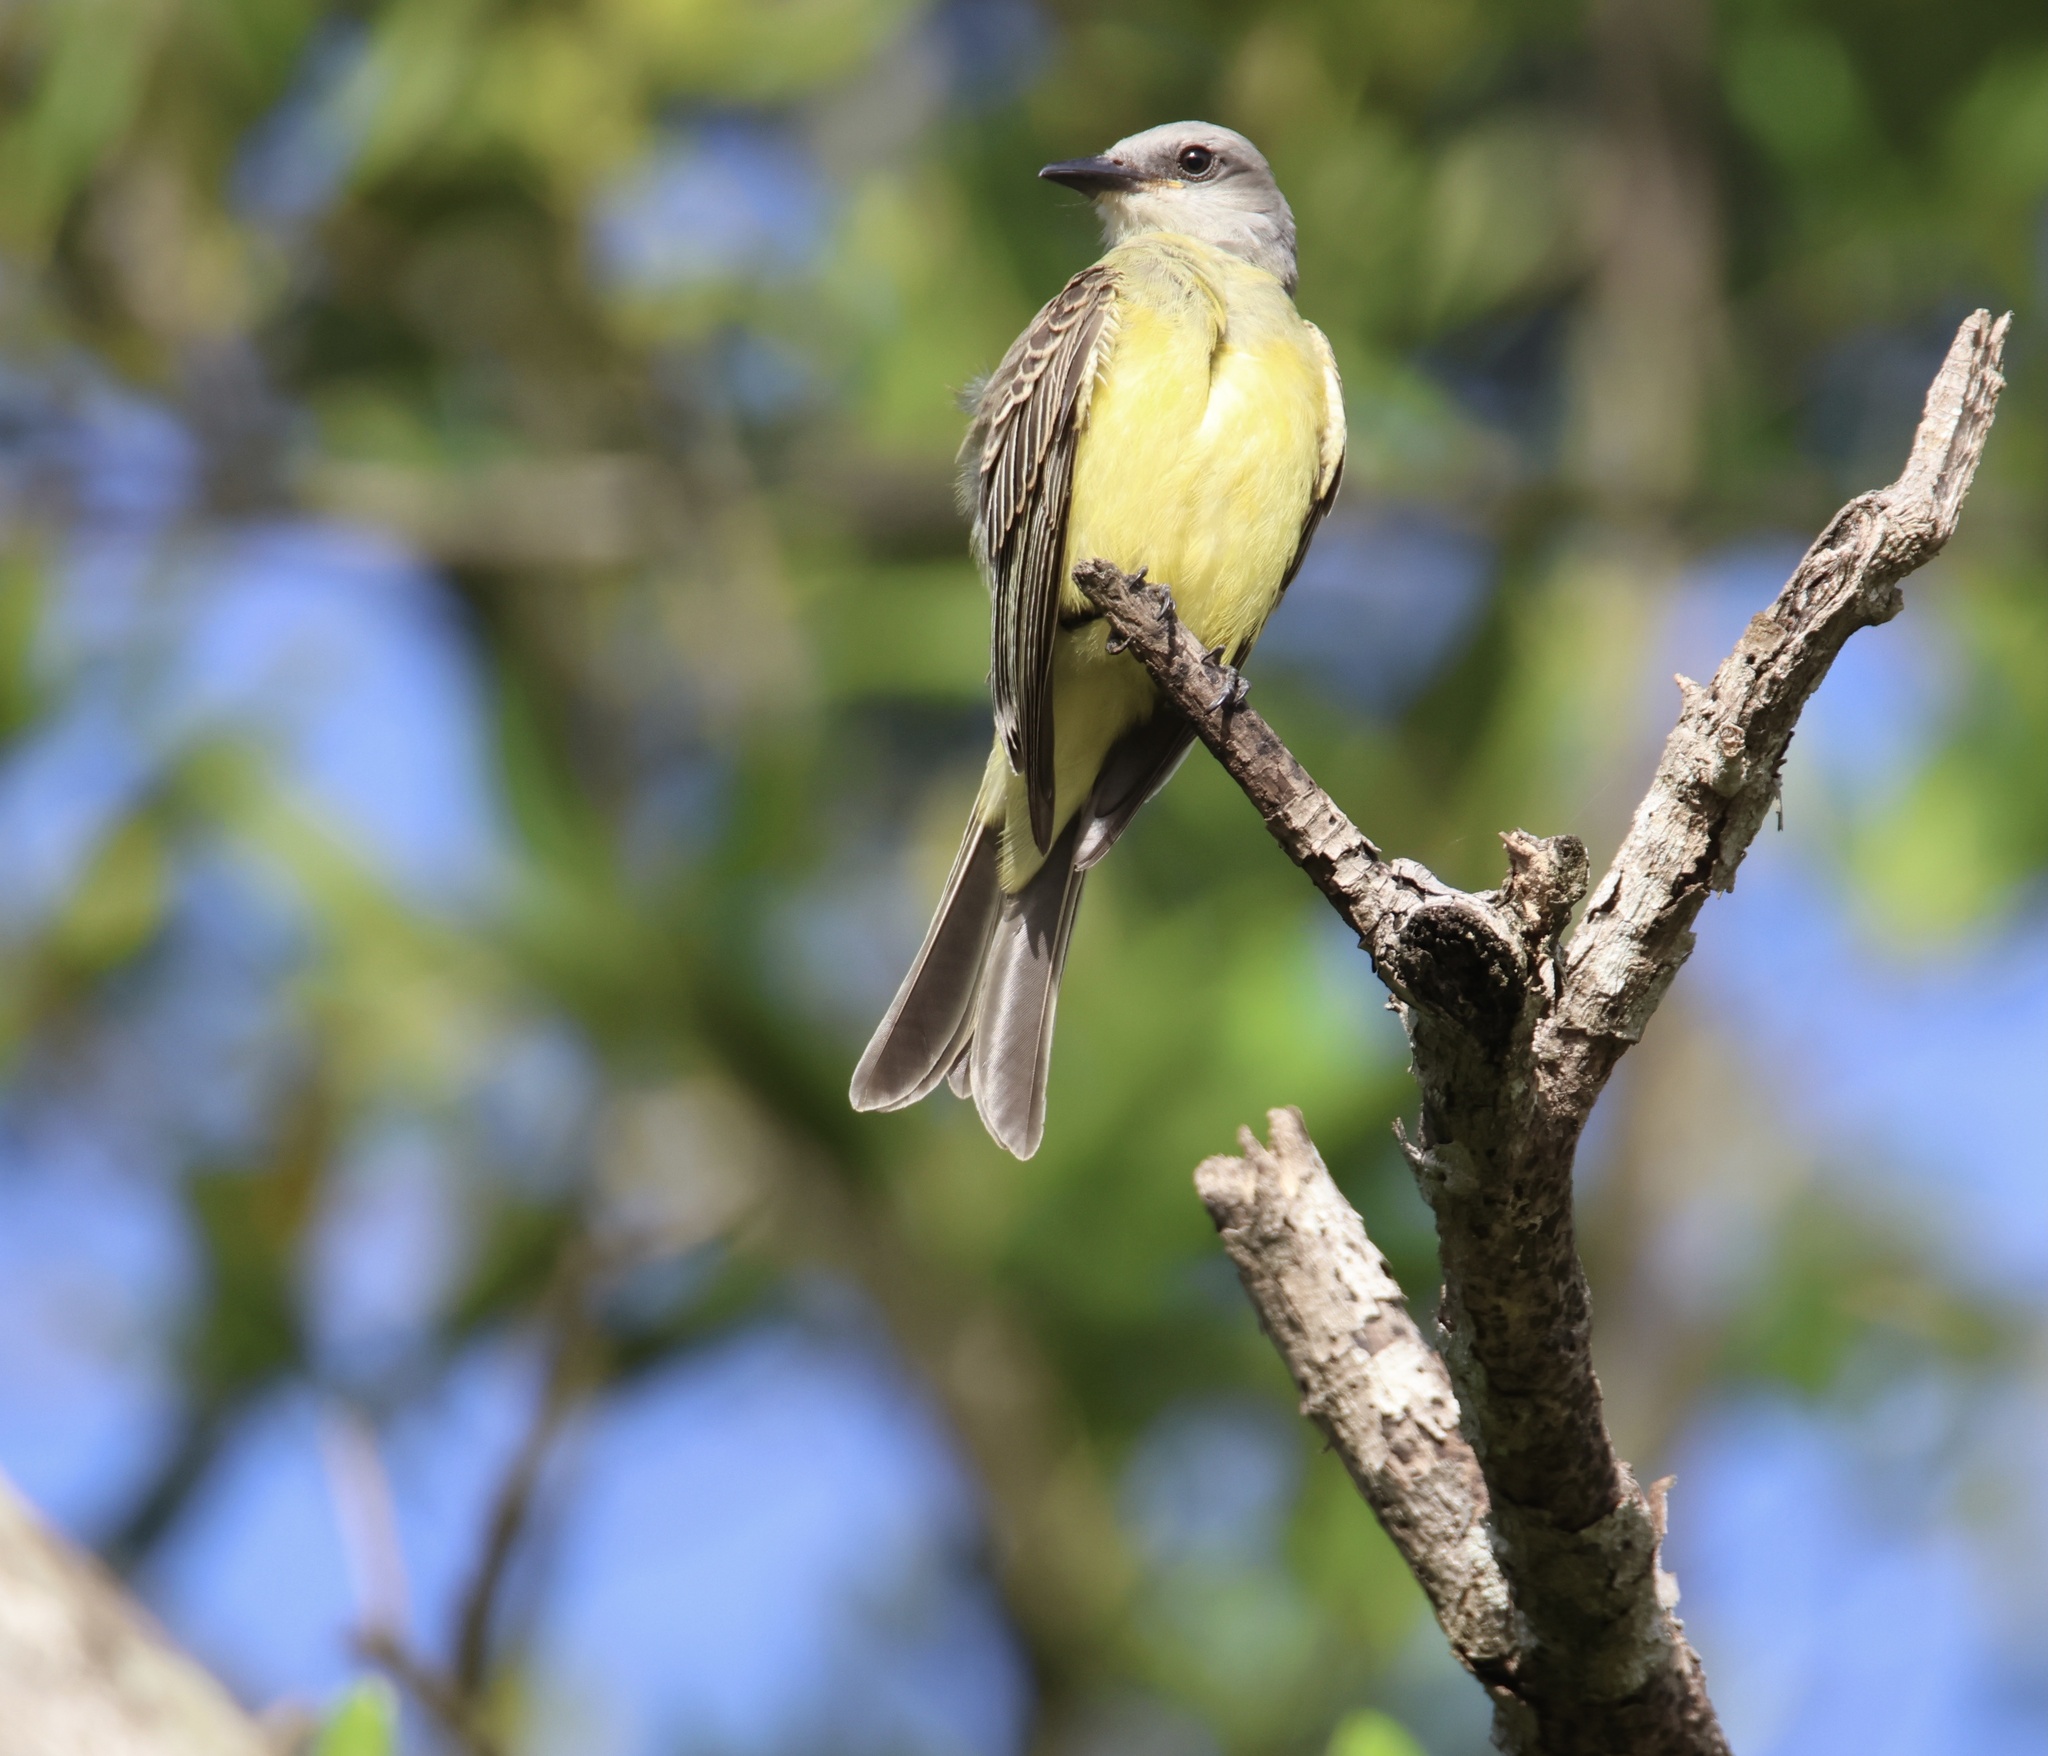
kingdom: Animalia
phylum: Chordata
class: Aves
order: Passeriformes
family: Tyrannidae
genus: Tyrannus
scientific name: Tyrannus melancholicus
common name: Tropical kingbird
